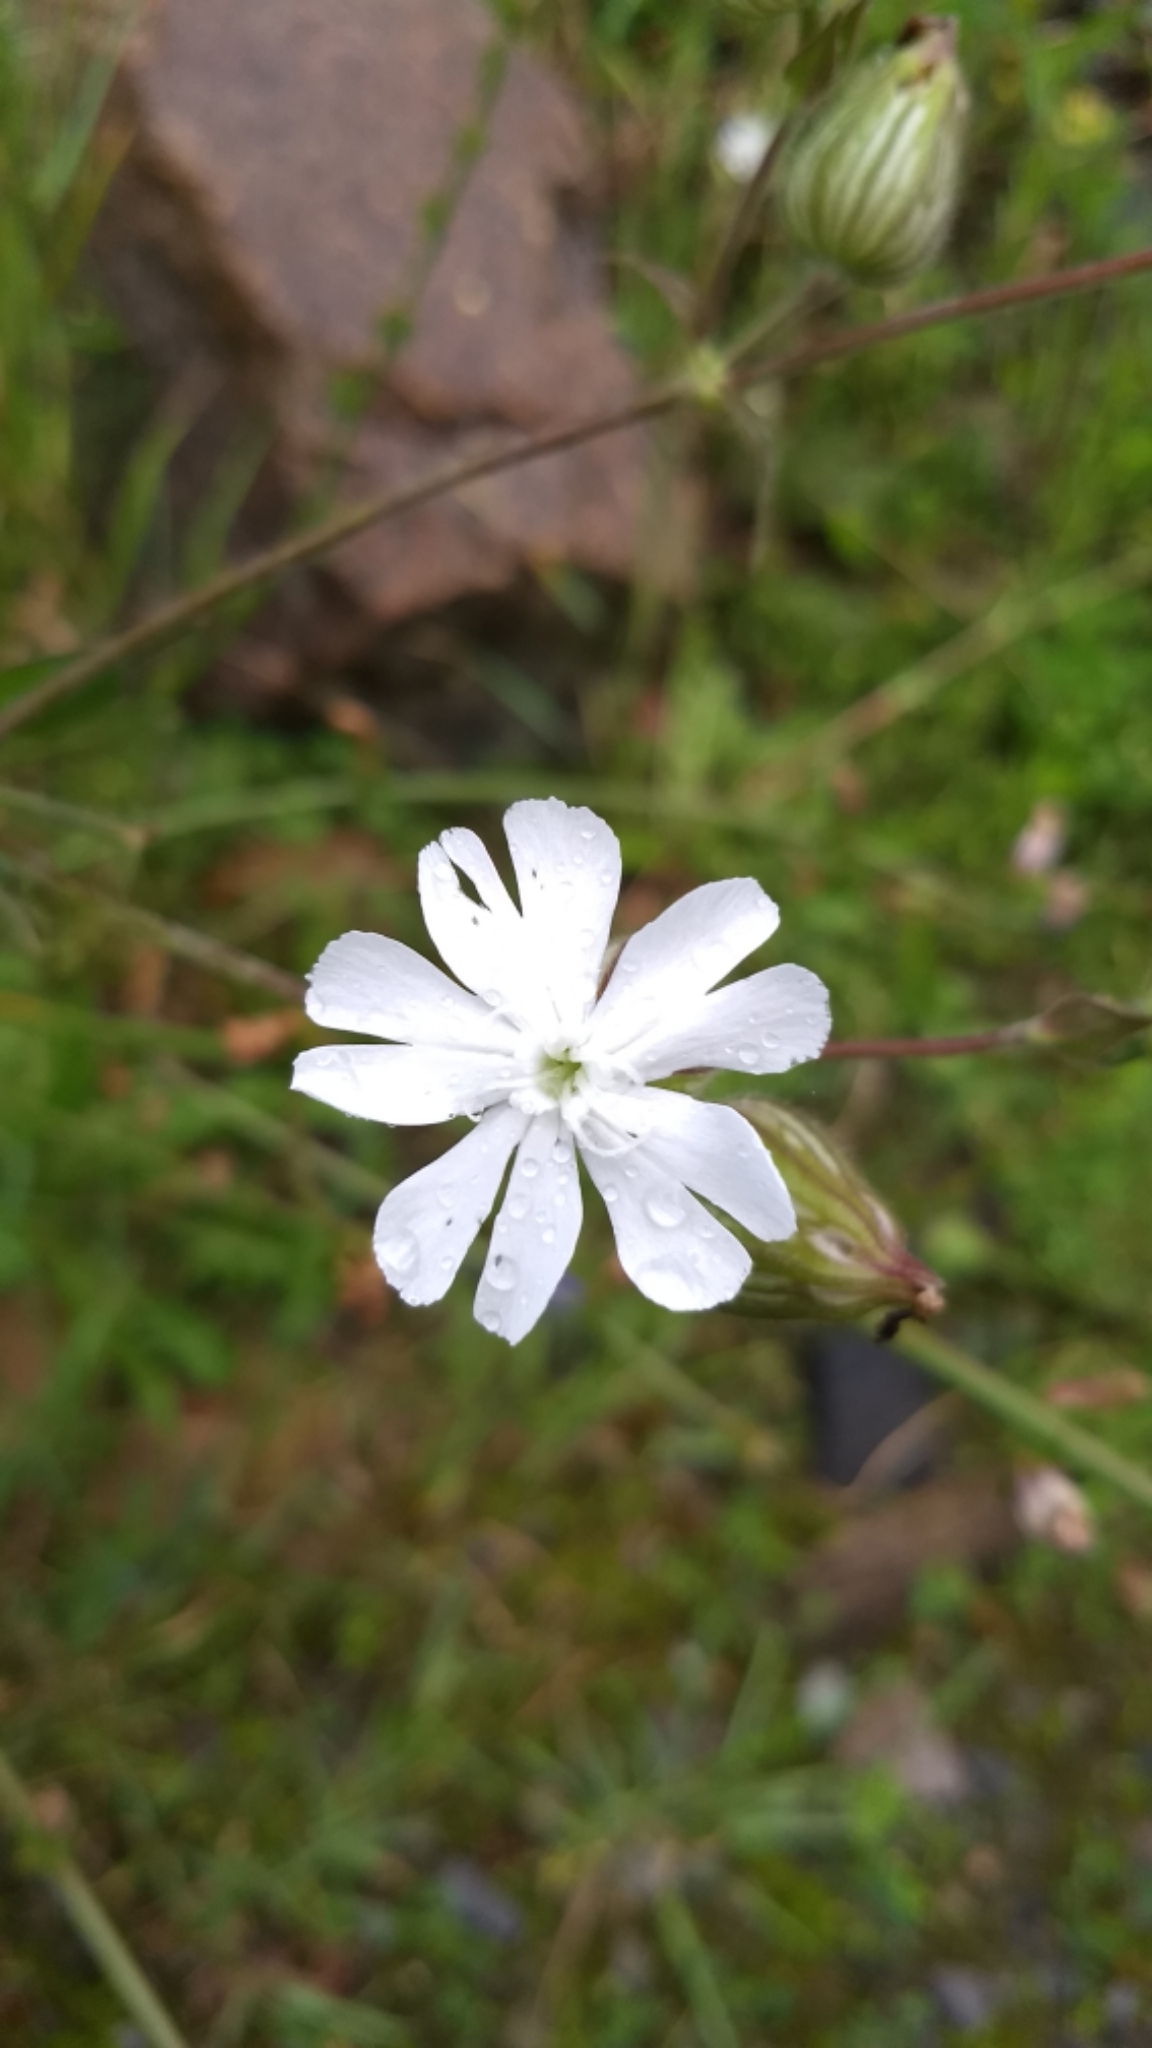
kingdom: Plantae
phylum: Tracheophyta
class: Magnoliopsida
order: Caryophyllales
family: Caryophyllaceae
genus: Silene
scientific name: Silene latifolia
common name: White campion
